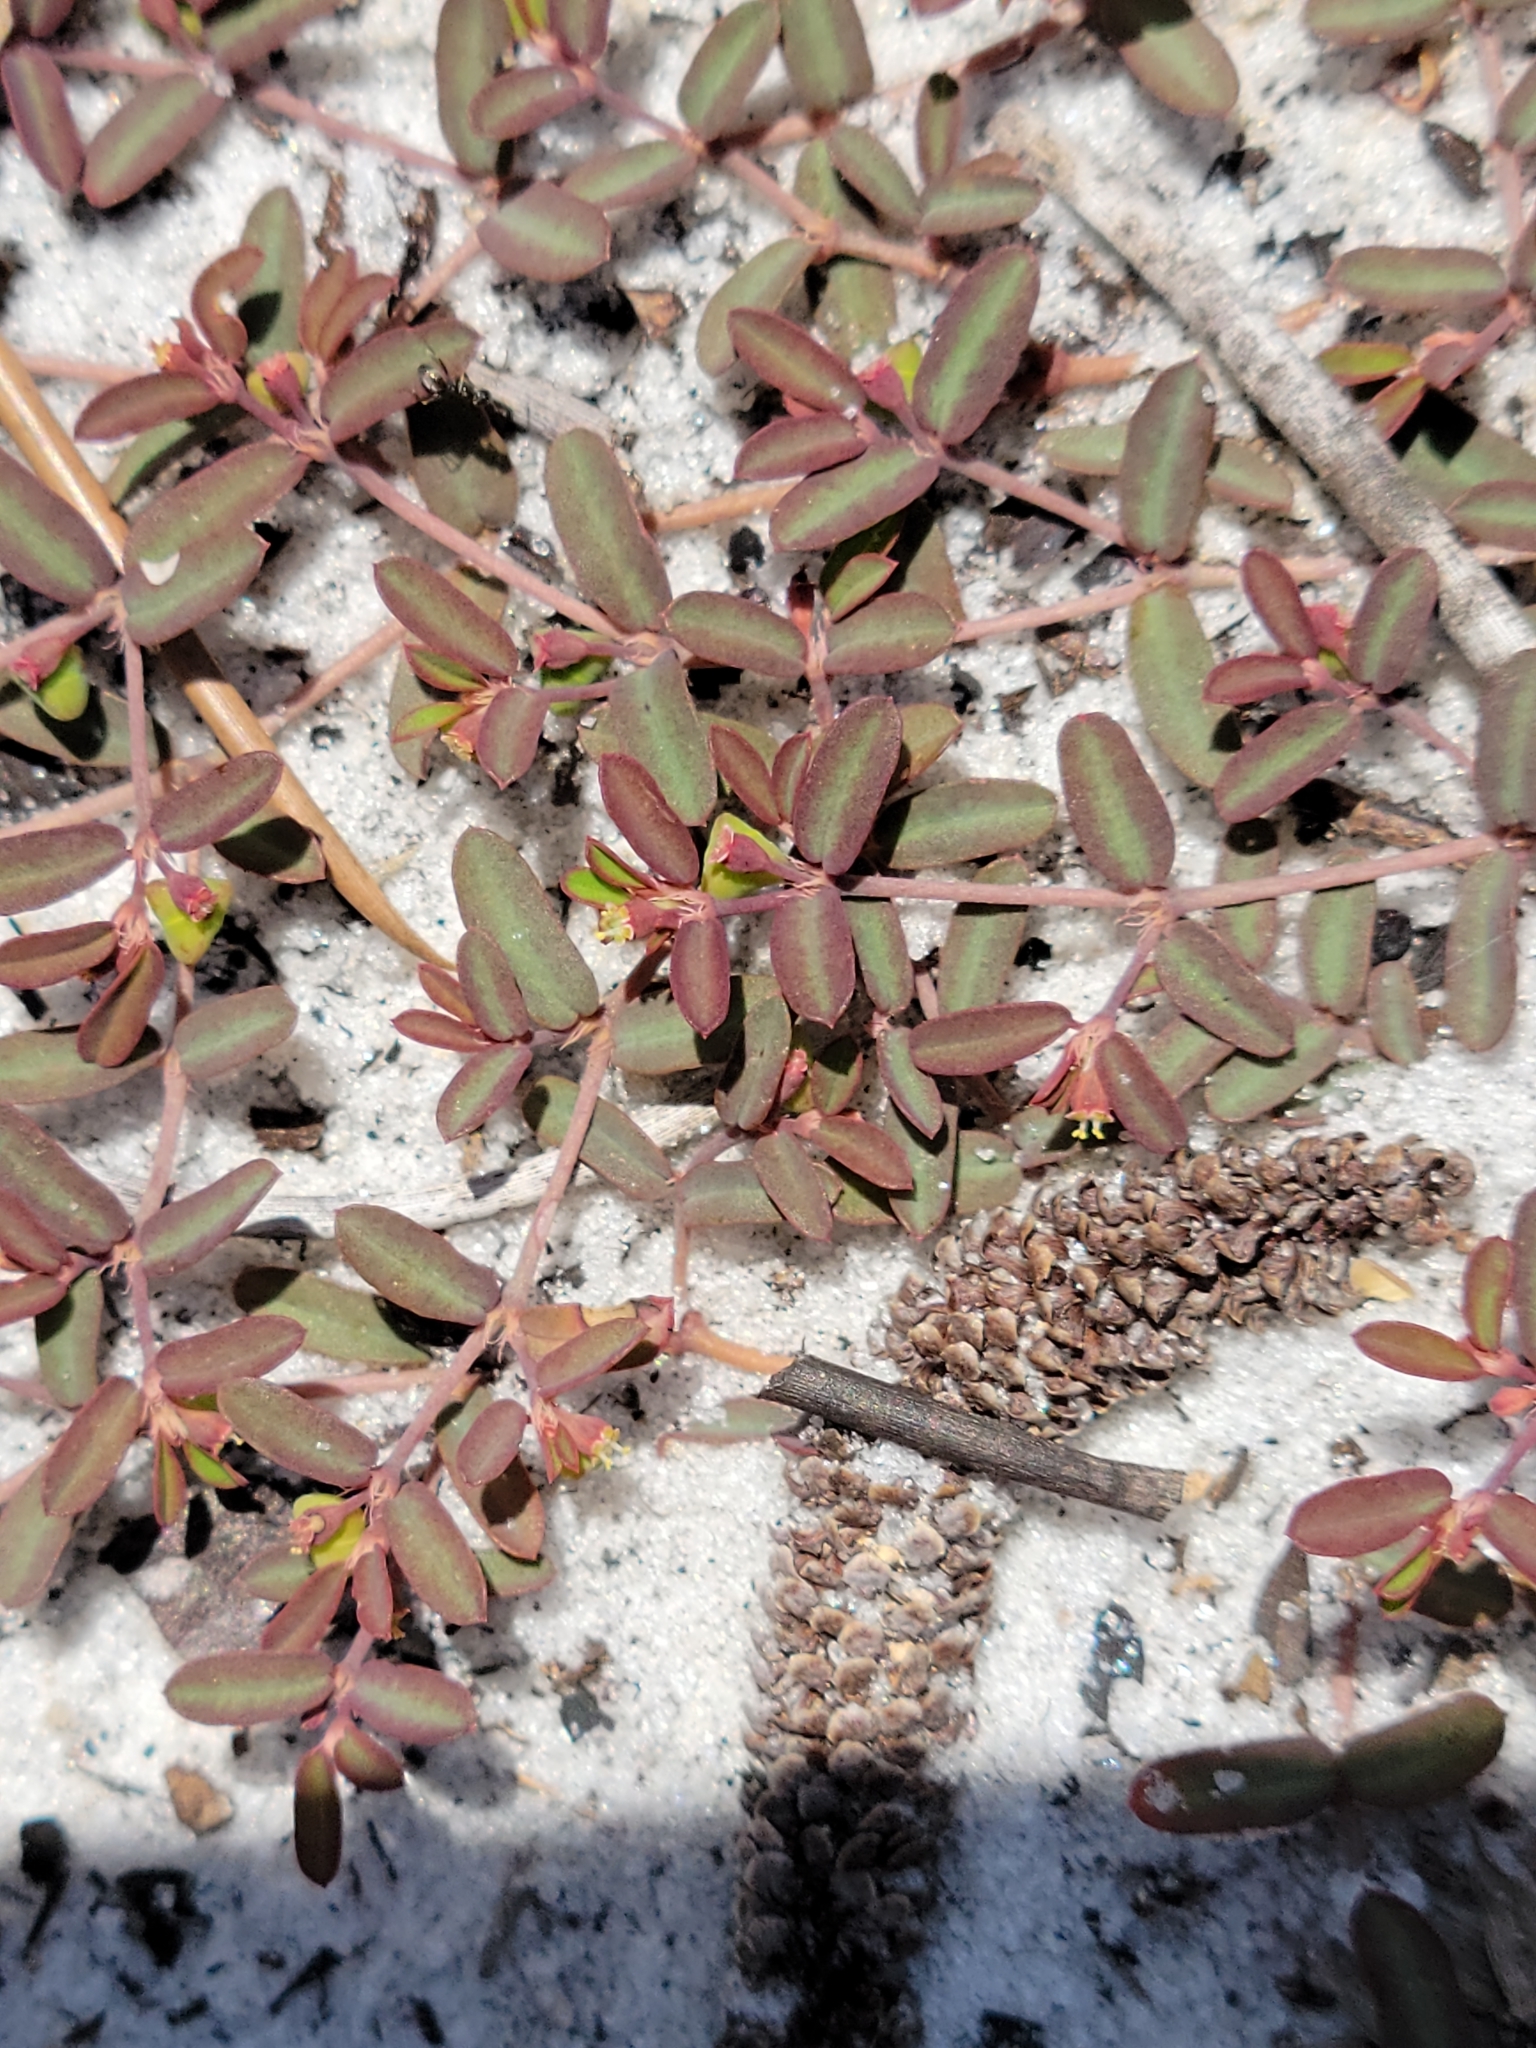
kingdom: Plantae
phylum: Tracheophyta
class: Magnoliopsida
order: Malpighiales
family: Euphorbiaceae
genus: Euphorbia
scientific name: Euphorbia cumulicola
